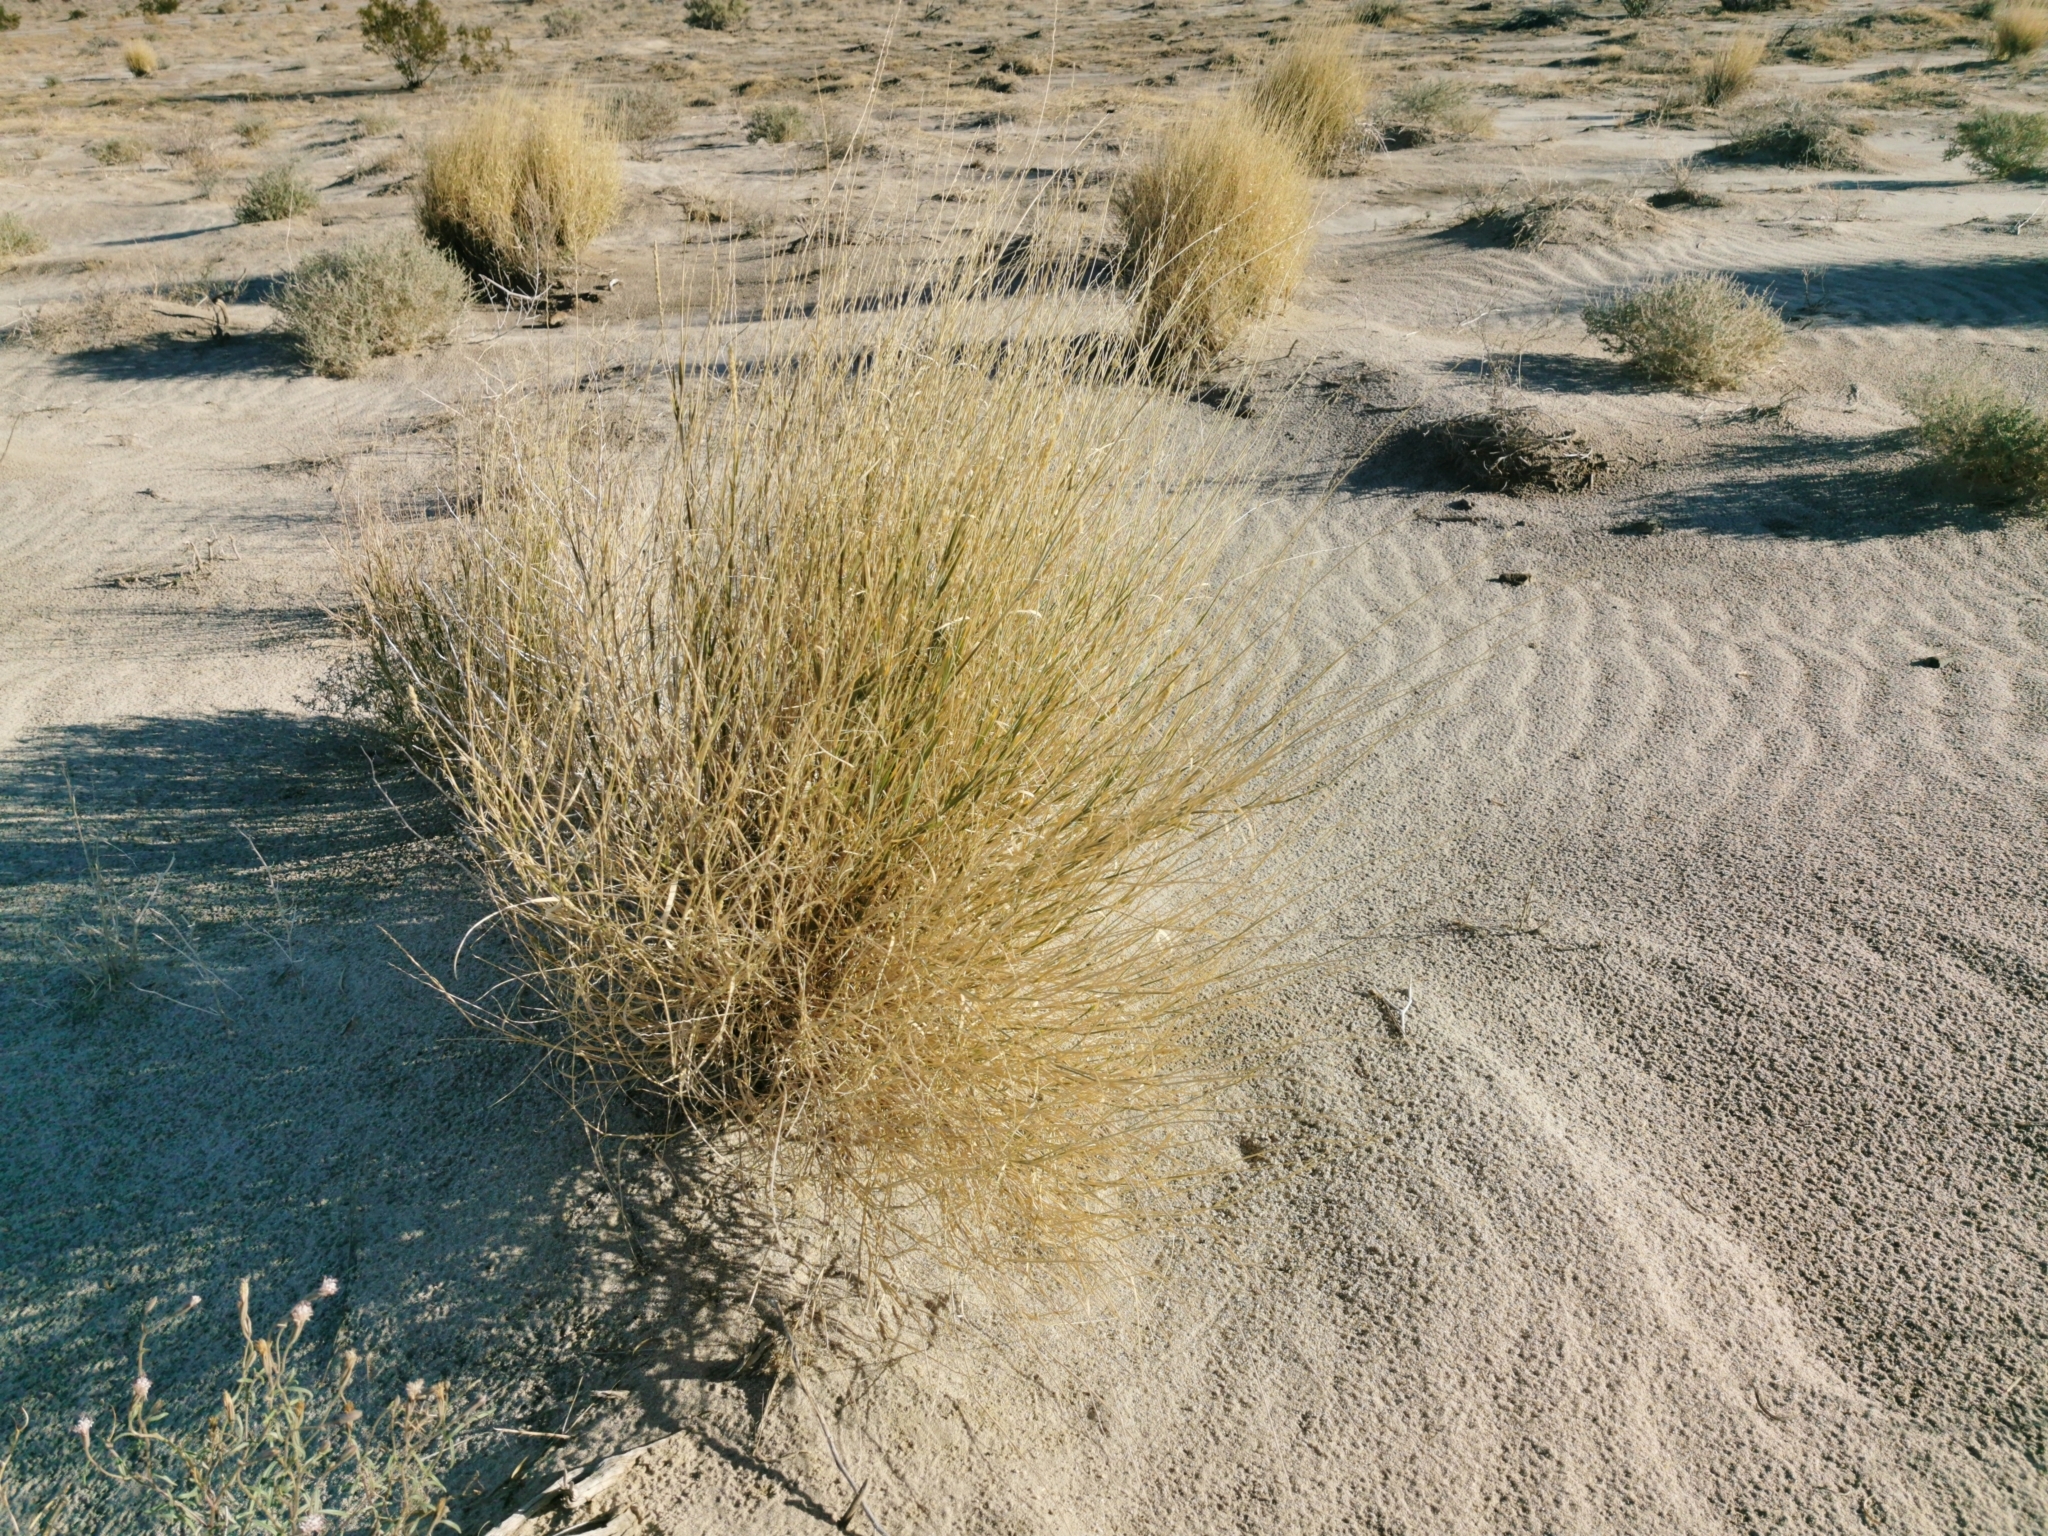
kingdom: Plantae
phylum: Tracheophyta
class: Liliopsida
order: Poales
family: Poaceae
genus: Hilaria
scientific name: Hilaria rigida
